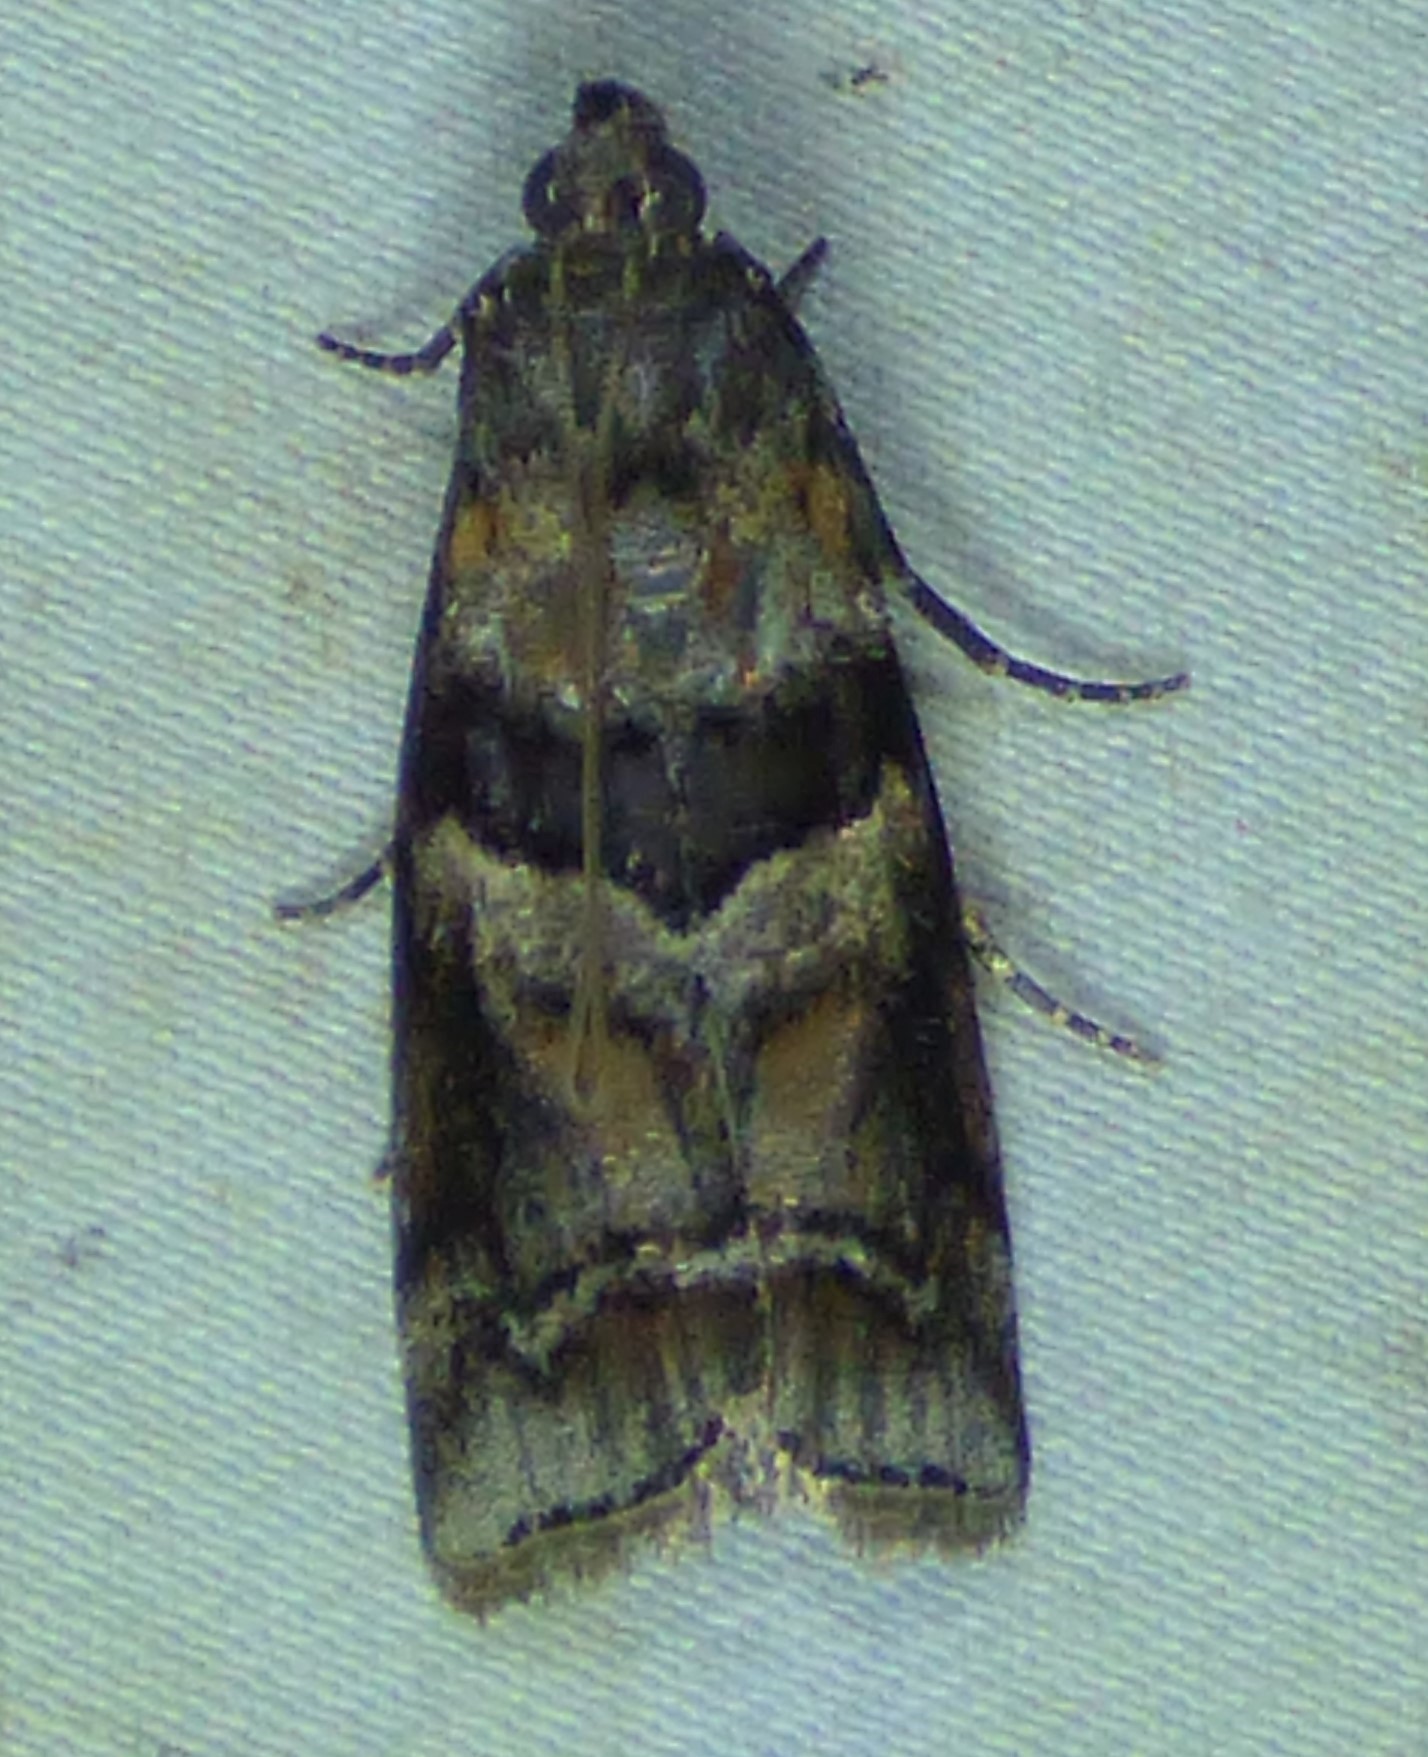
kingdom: Animalia
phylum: Arthropoda
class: Insecta
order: Lepidoptera
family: Pyralidae
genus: Dioryctria
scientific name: Dioryctria clarioralis
